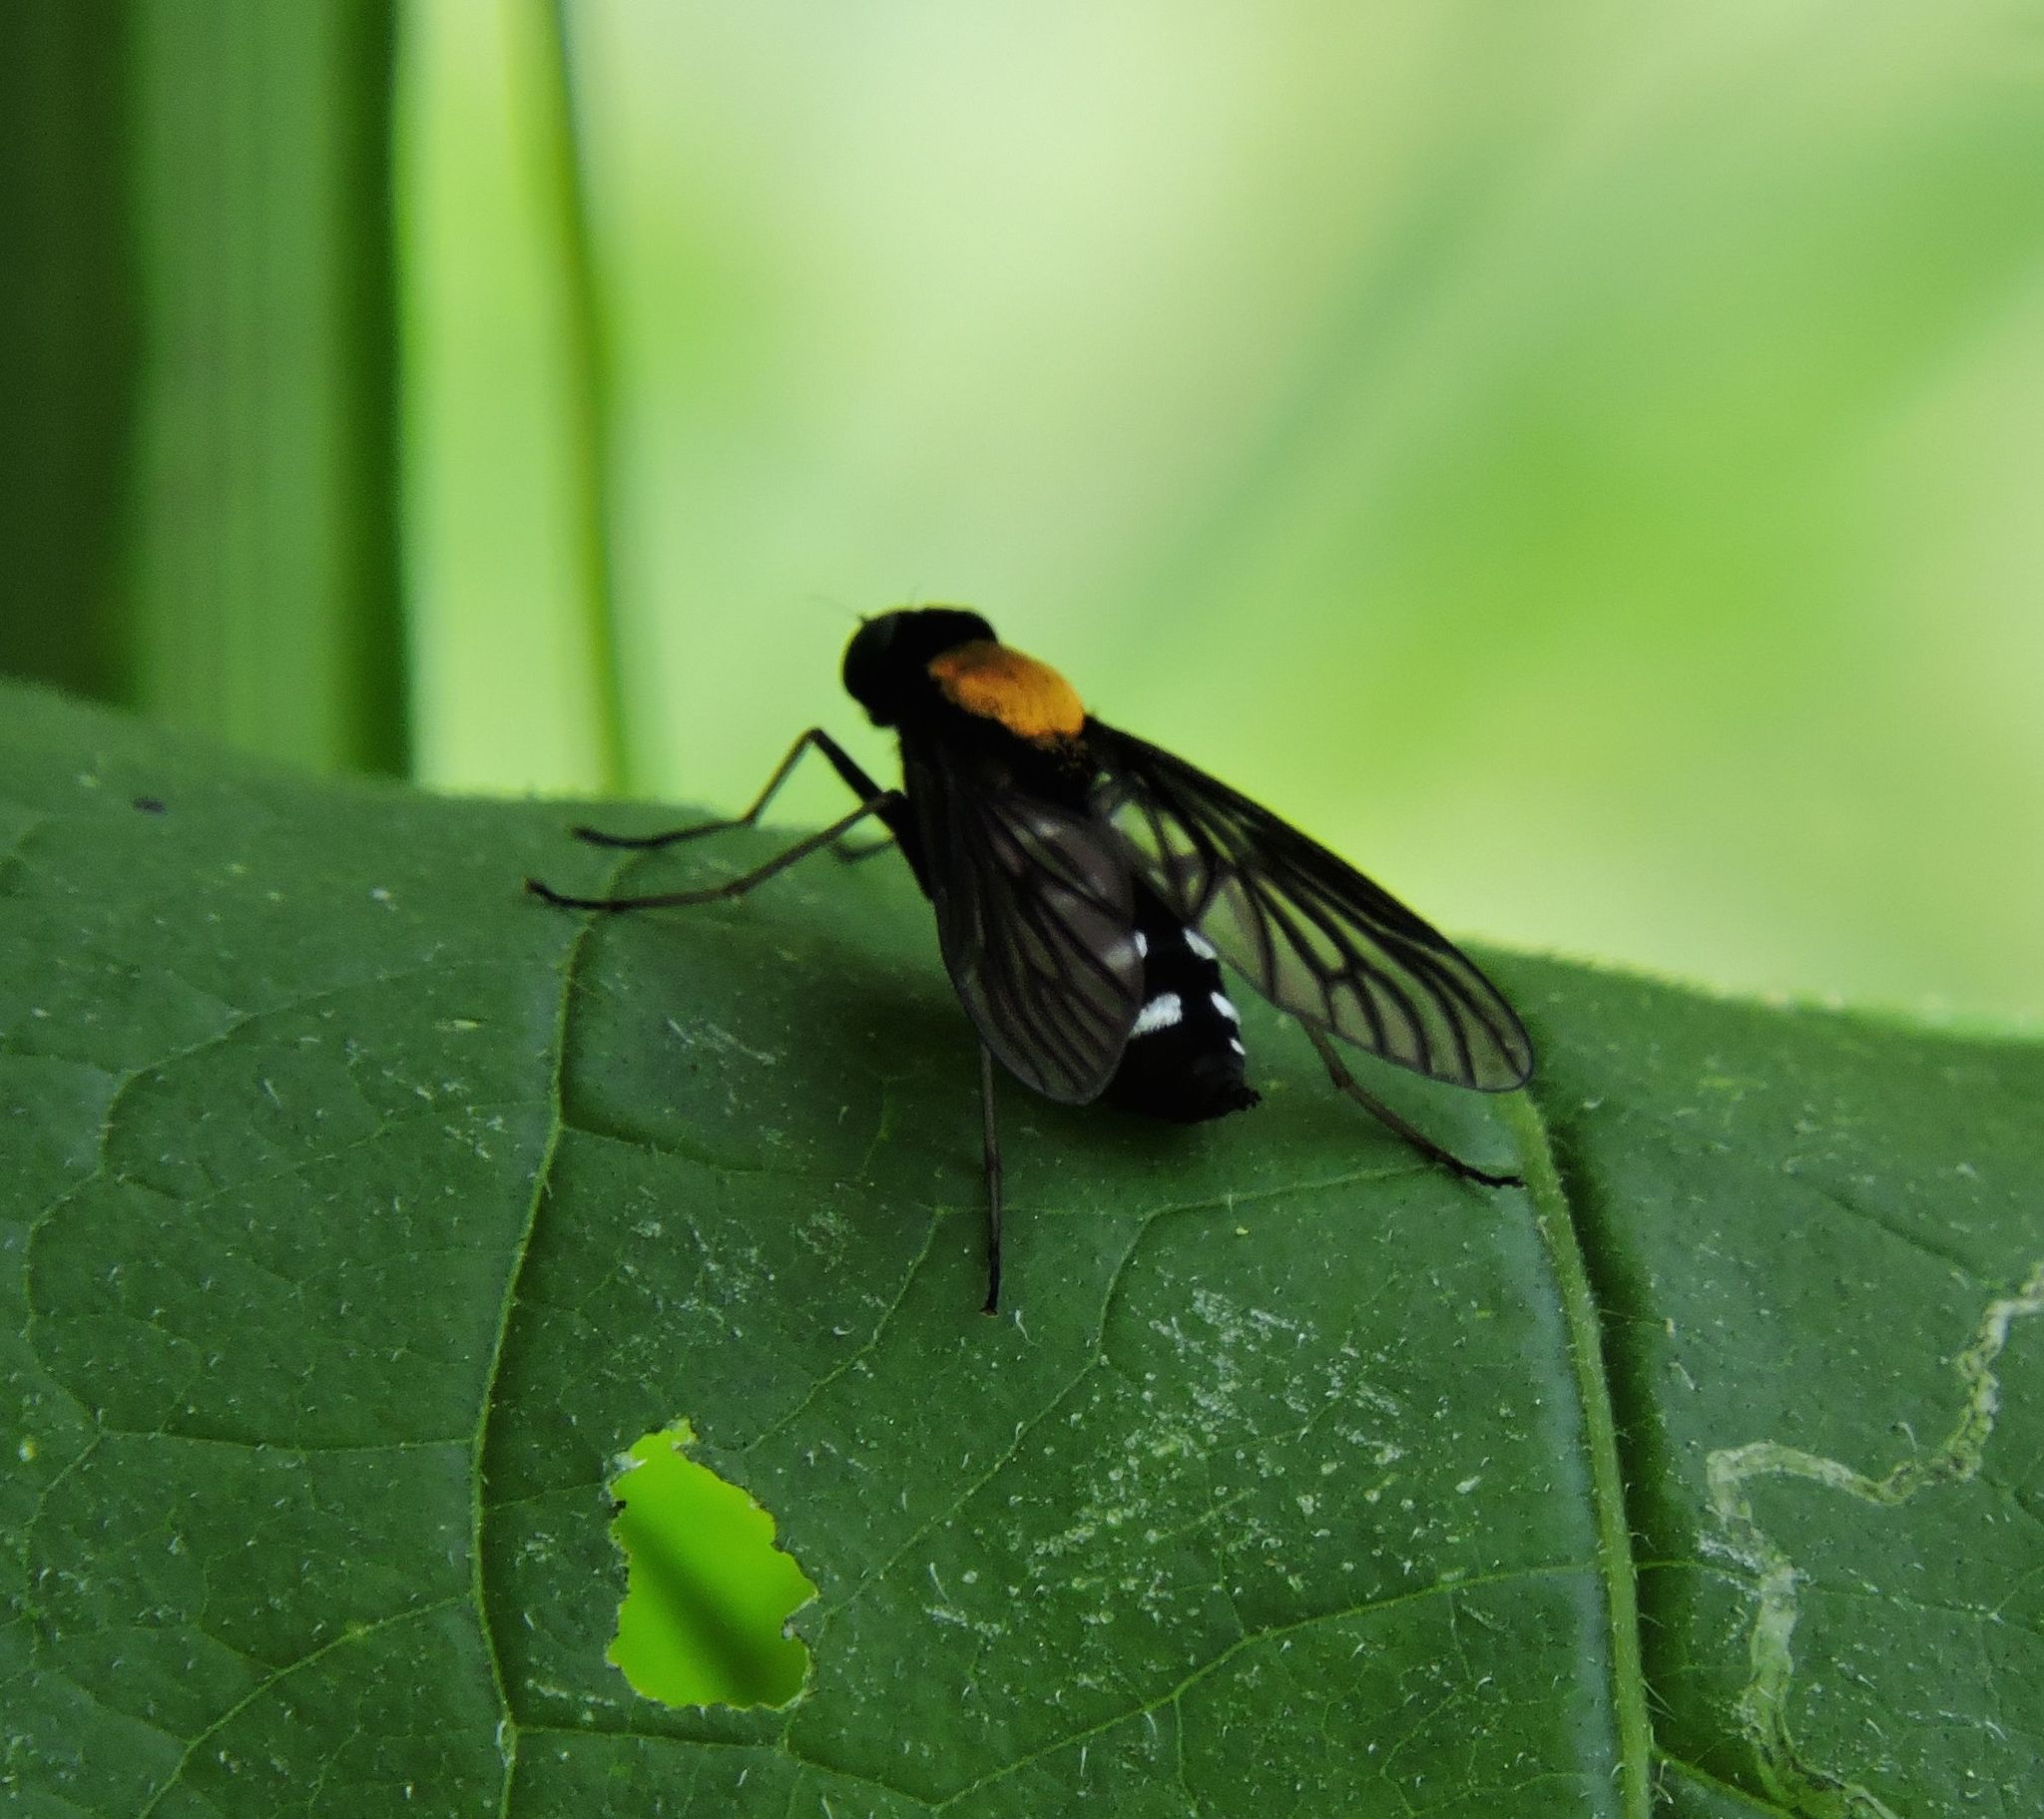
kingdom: Animalia
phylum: Arthropoda
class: Insecta
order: Diptera
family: Rhagionidae
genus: Chrysopilus
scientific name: Chrysopilus thoracicus
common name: Golden-backed snipe fly
